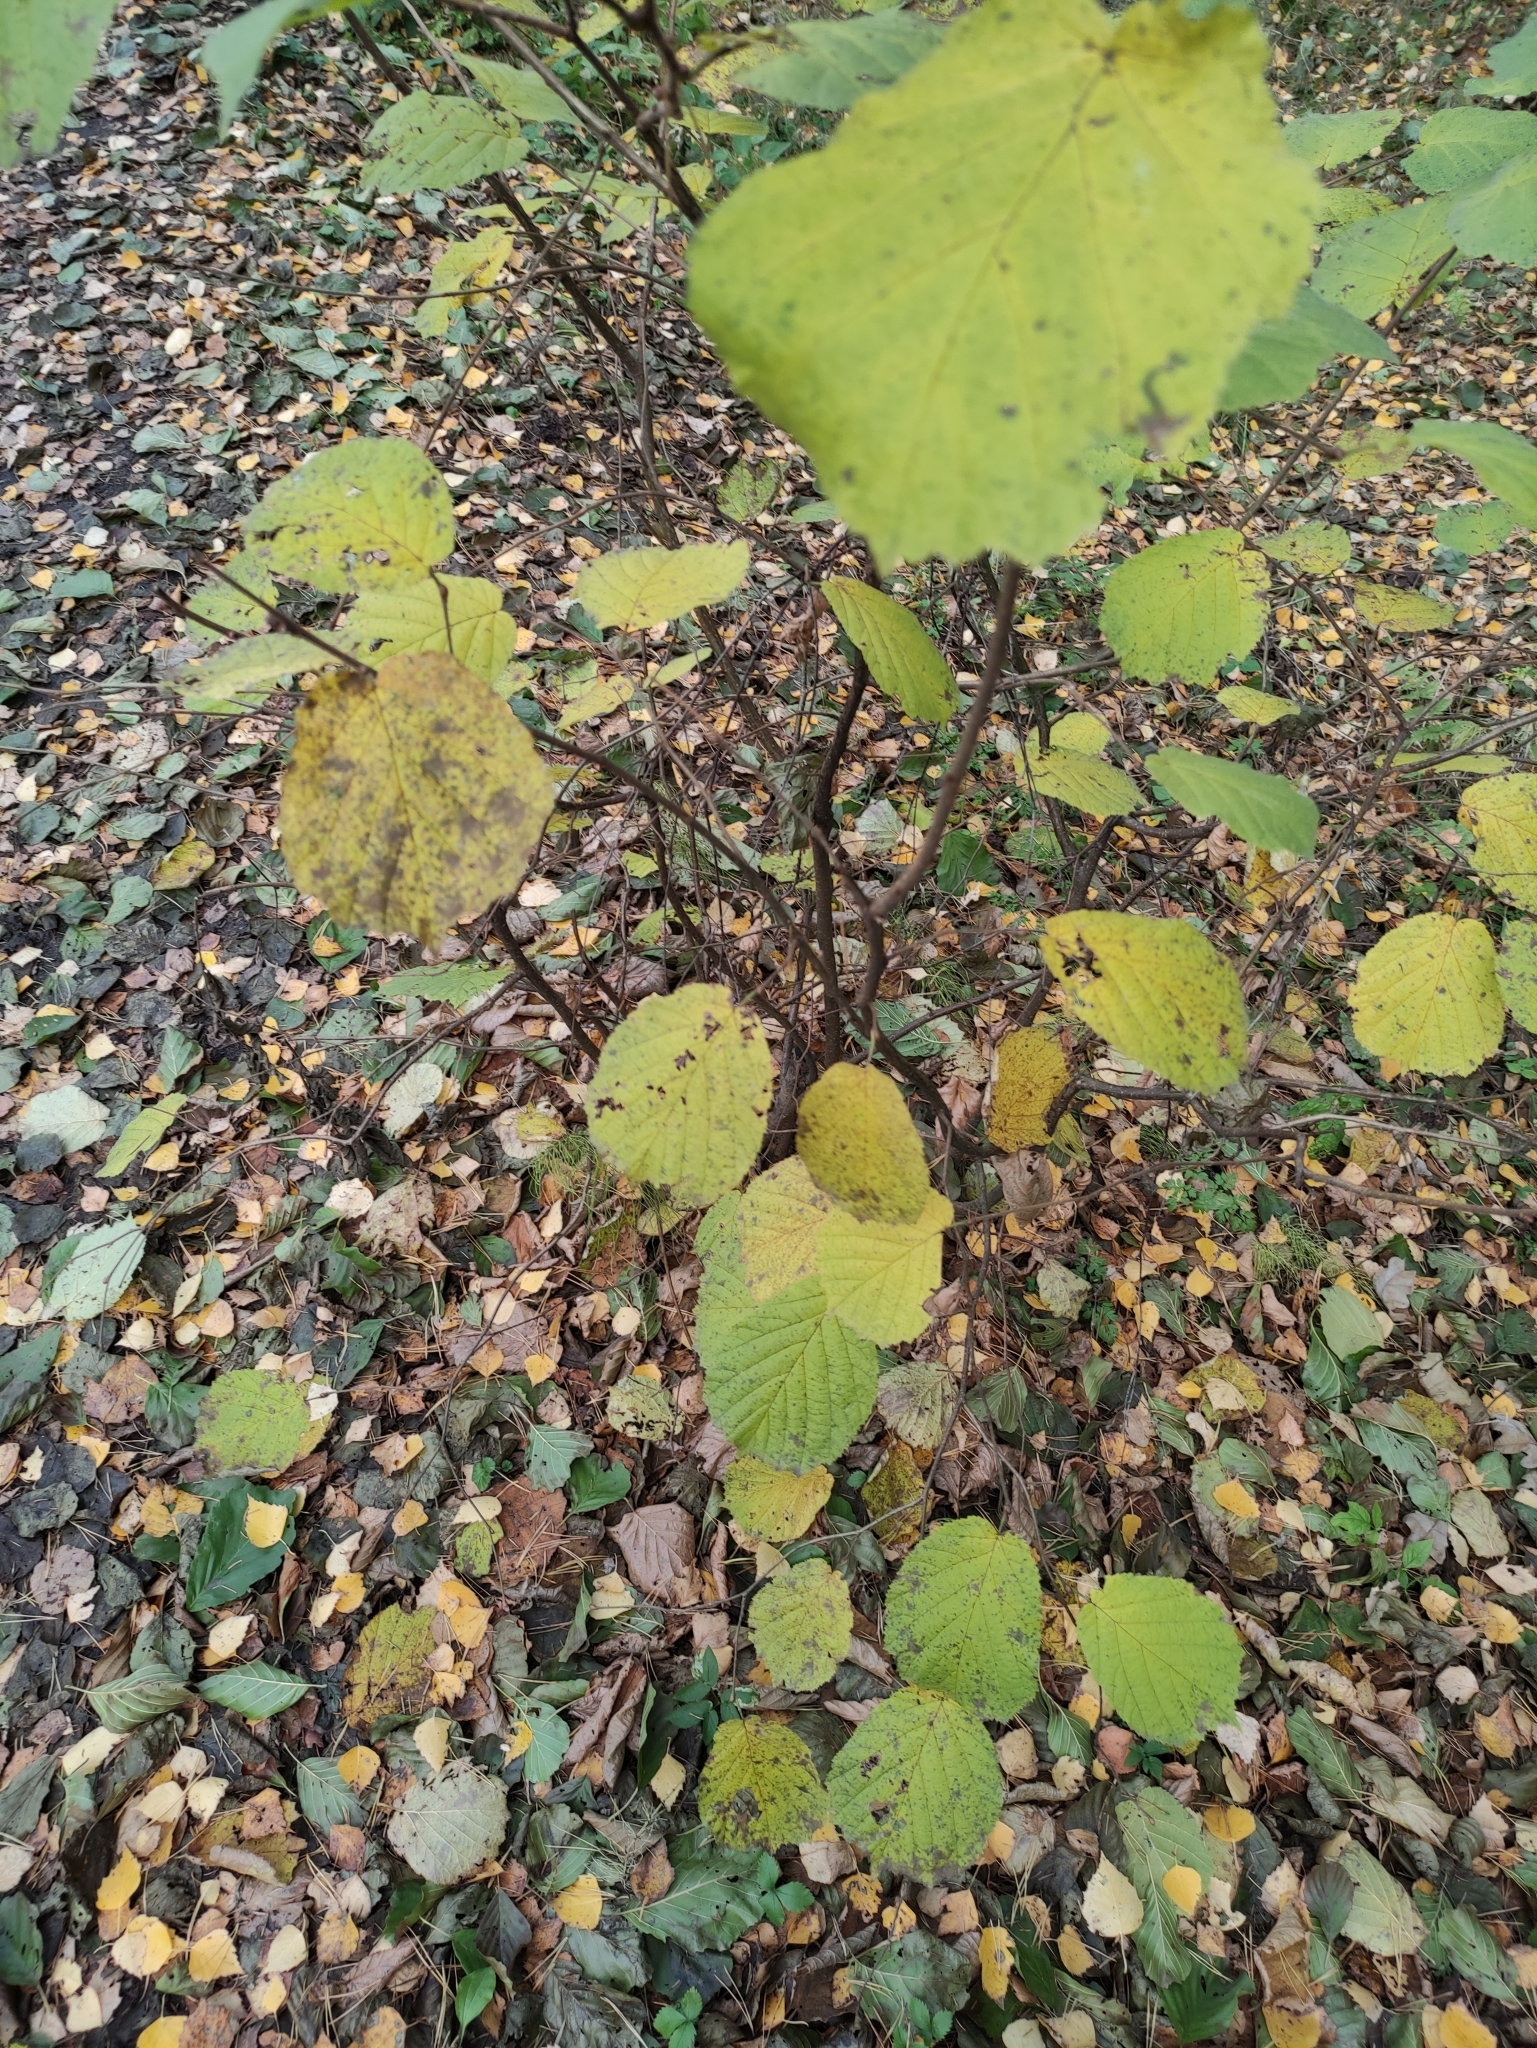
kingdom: Plantae
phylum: Tracheophyta
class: Magnoliopsida
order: Fagales
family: Betulaceae
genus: Corylus
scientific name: Corylus avellana
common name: European hazel
